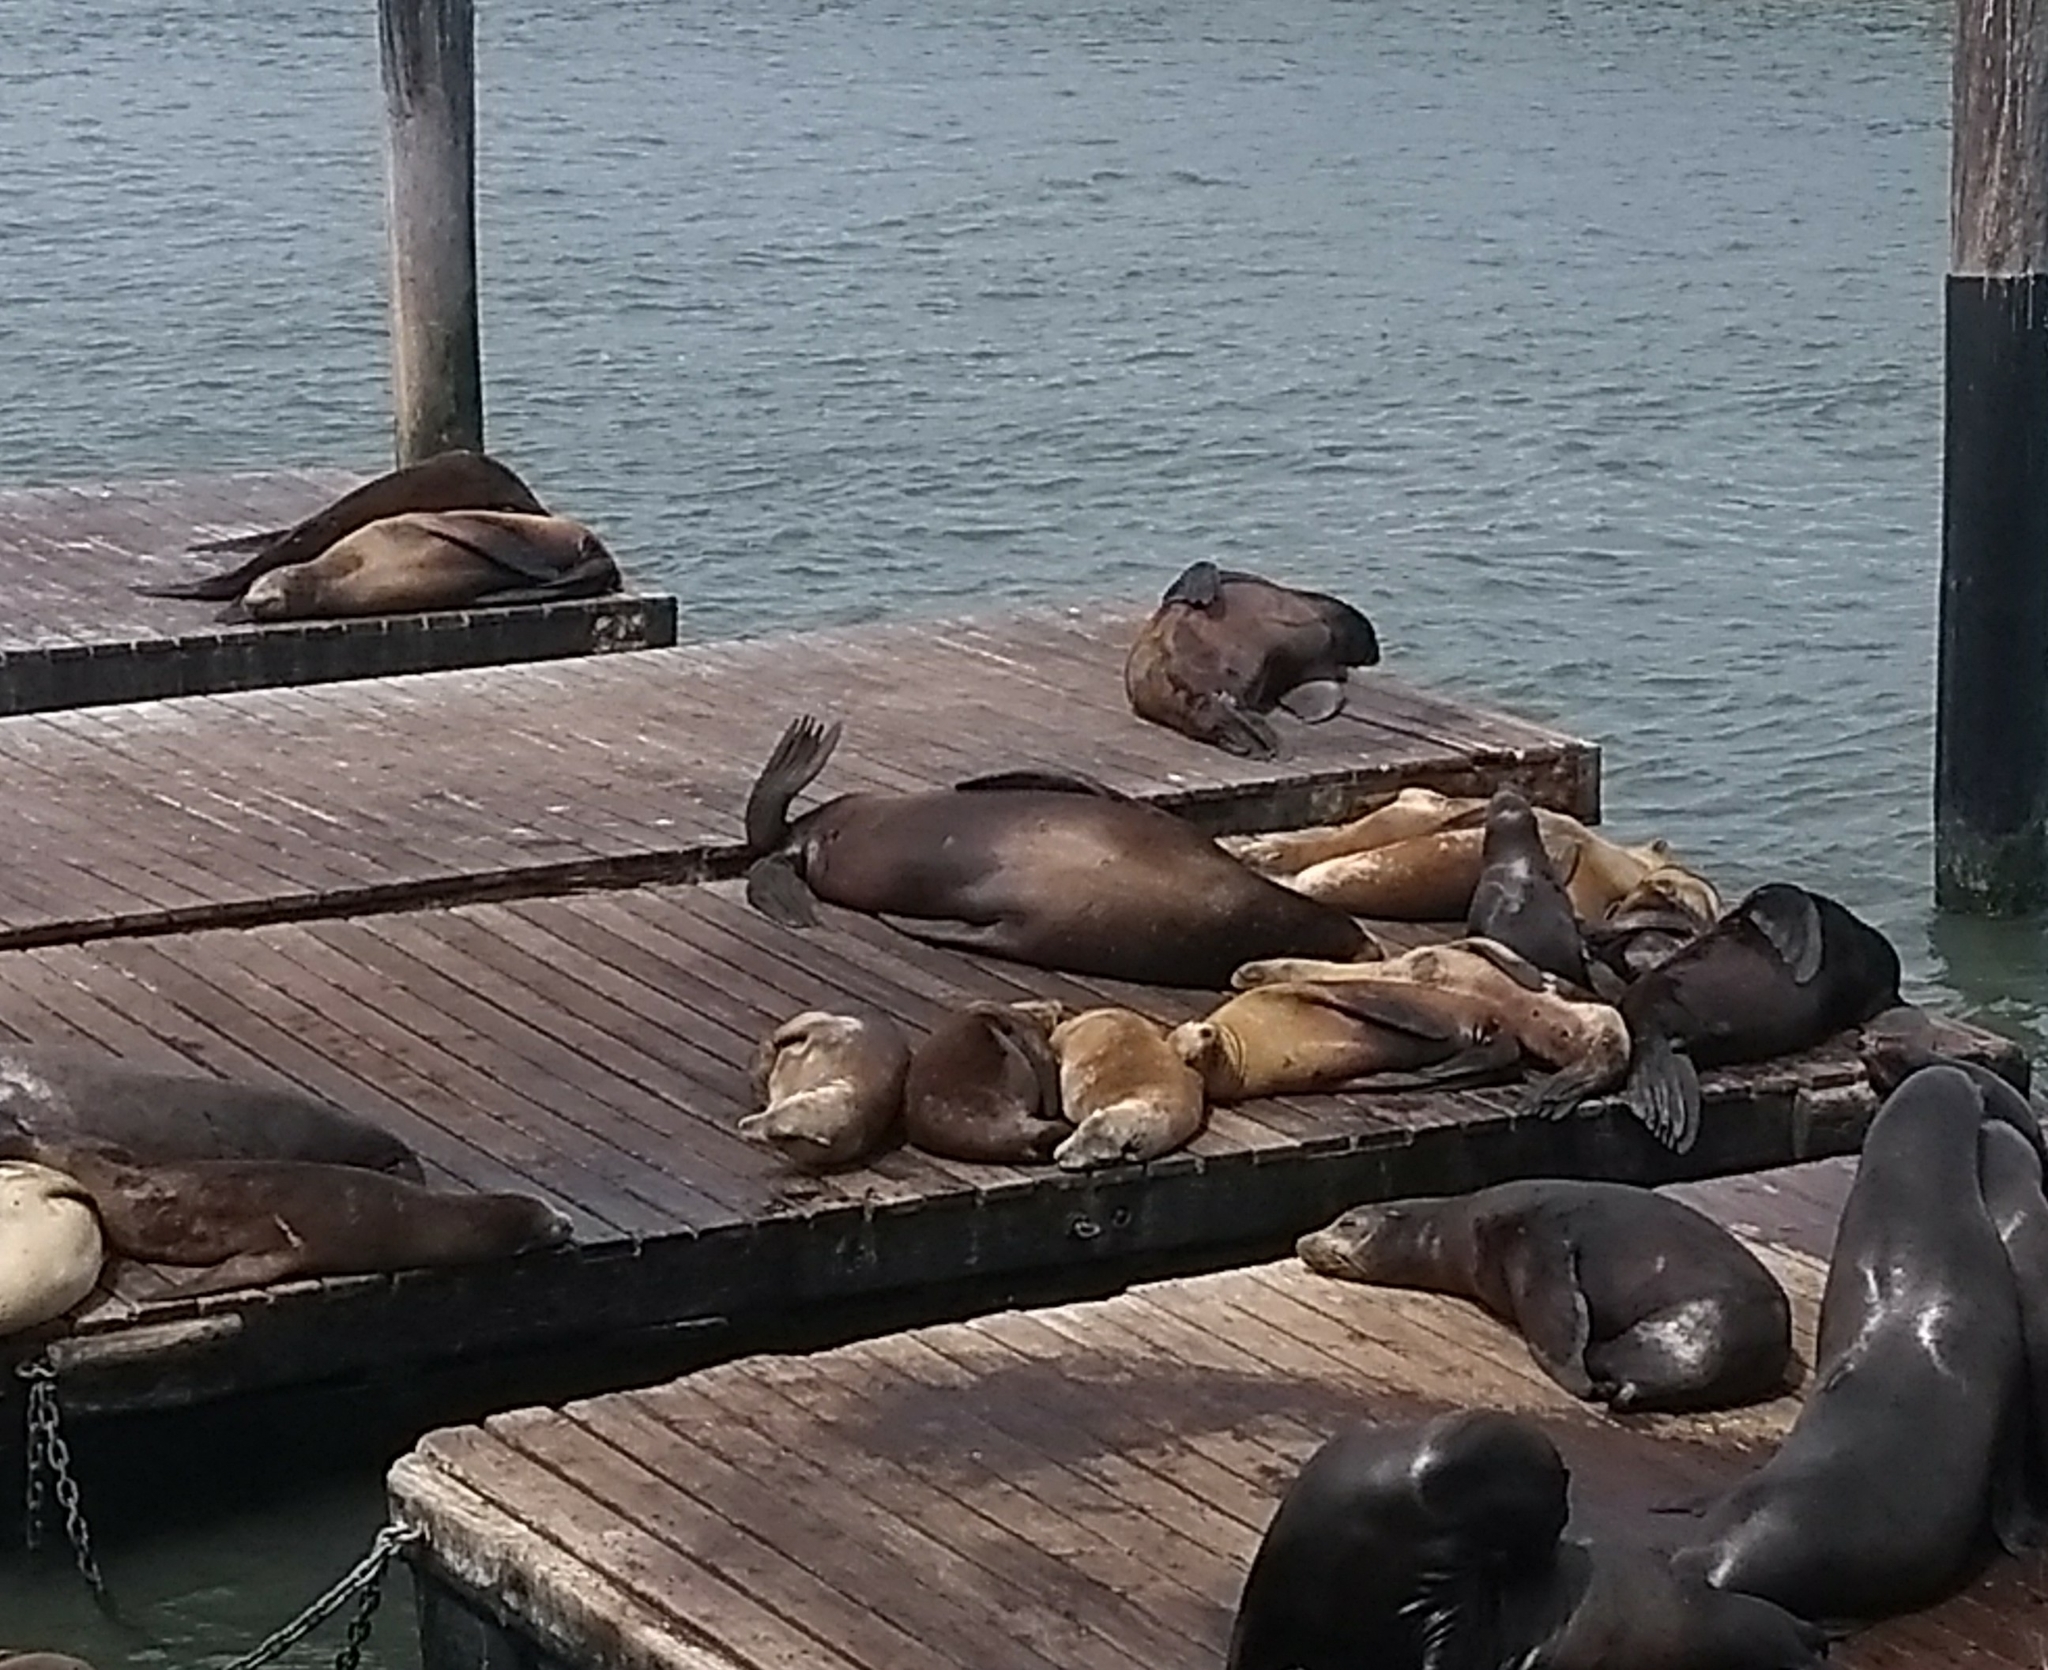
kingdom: Animalia
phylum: Chordata
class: Mammalia
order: Carnivora
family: Otariidae
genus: Zalophus
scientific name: Zalophus californianus
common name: California sea lion
